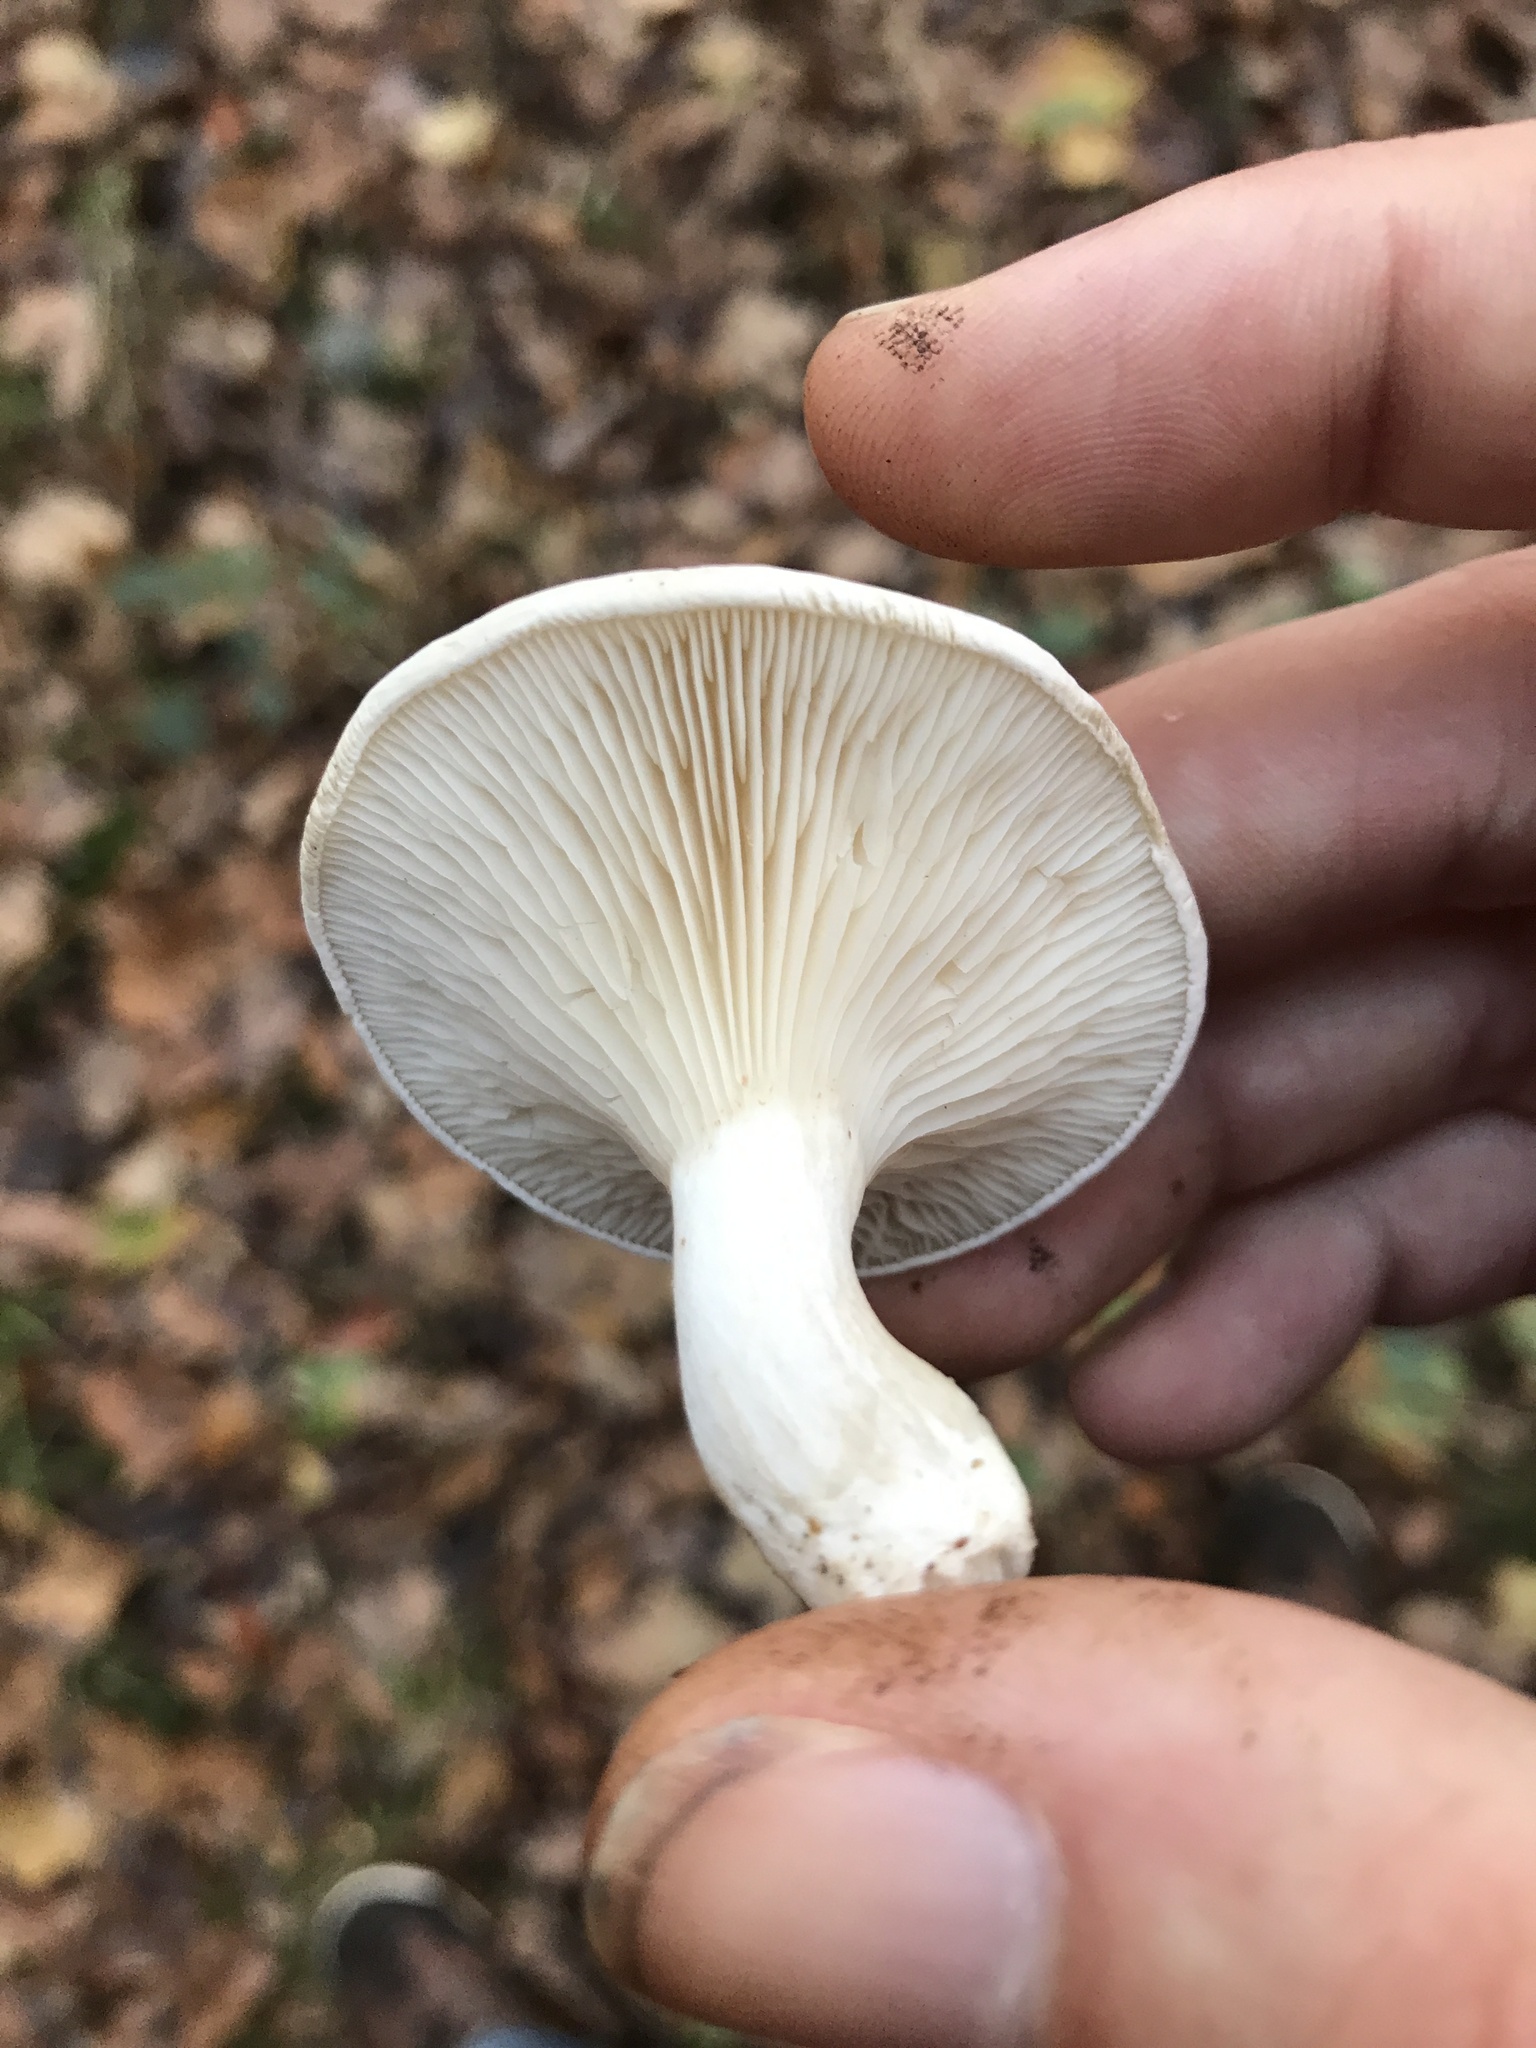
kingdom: Fungi
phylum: Basidiomycota
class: Agaricomycetes
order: Agaricales
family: Entolomataceae
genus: Clitopilus
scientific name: Clitopilus prunulus
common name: The miller
